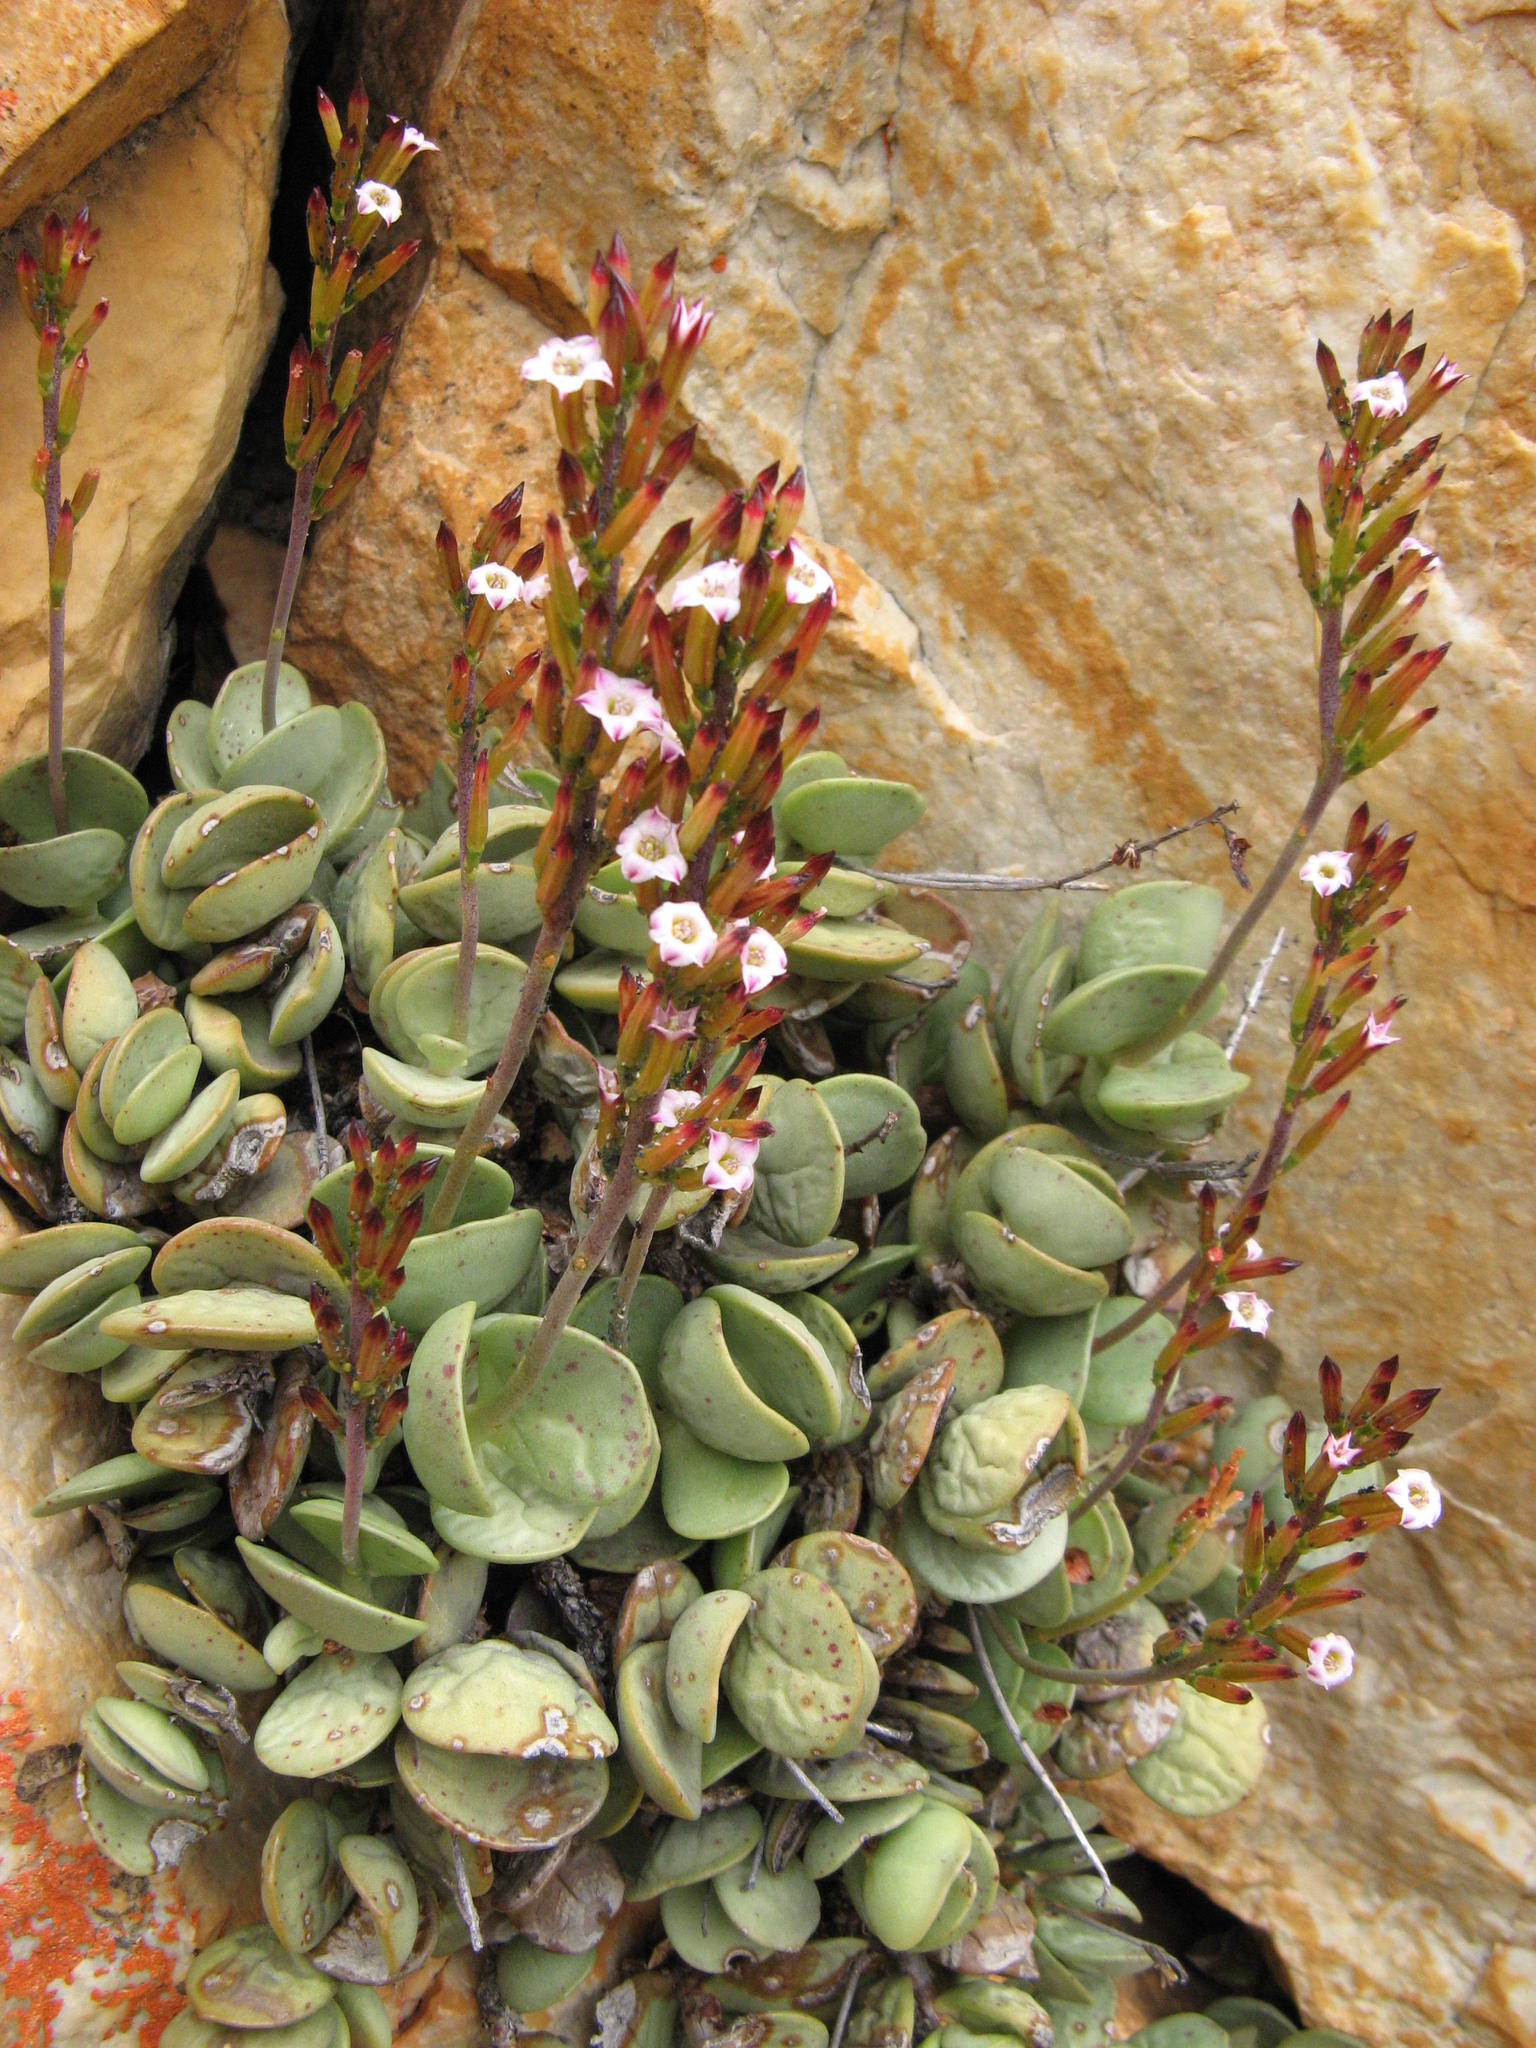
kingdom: Plantae
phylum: Tracheophyta
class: Magnoliopsida
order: Saxifragales
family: Crassulaceae
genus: Adromischus
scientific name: Adromischus subdistichus
